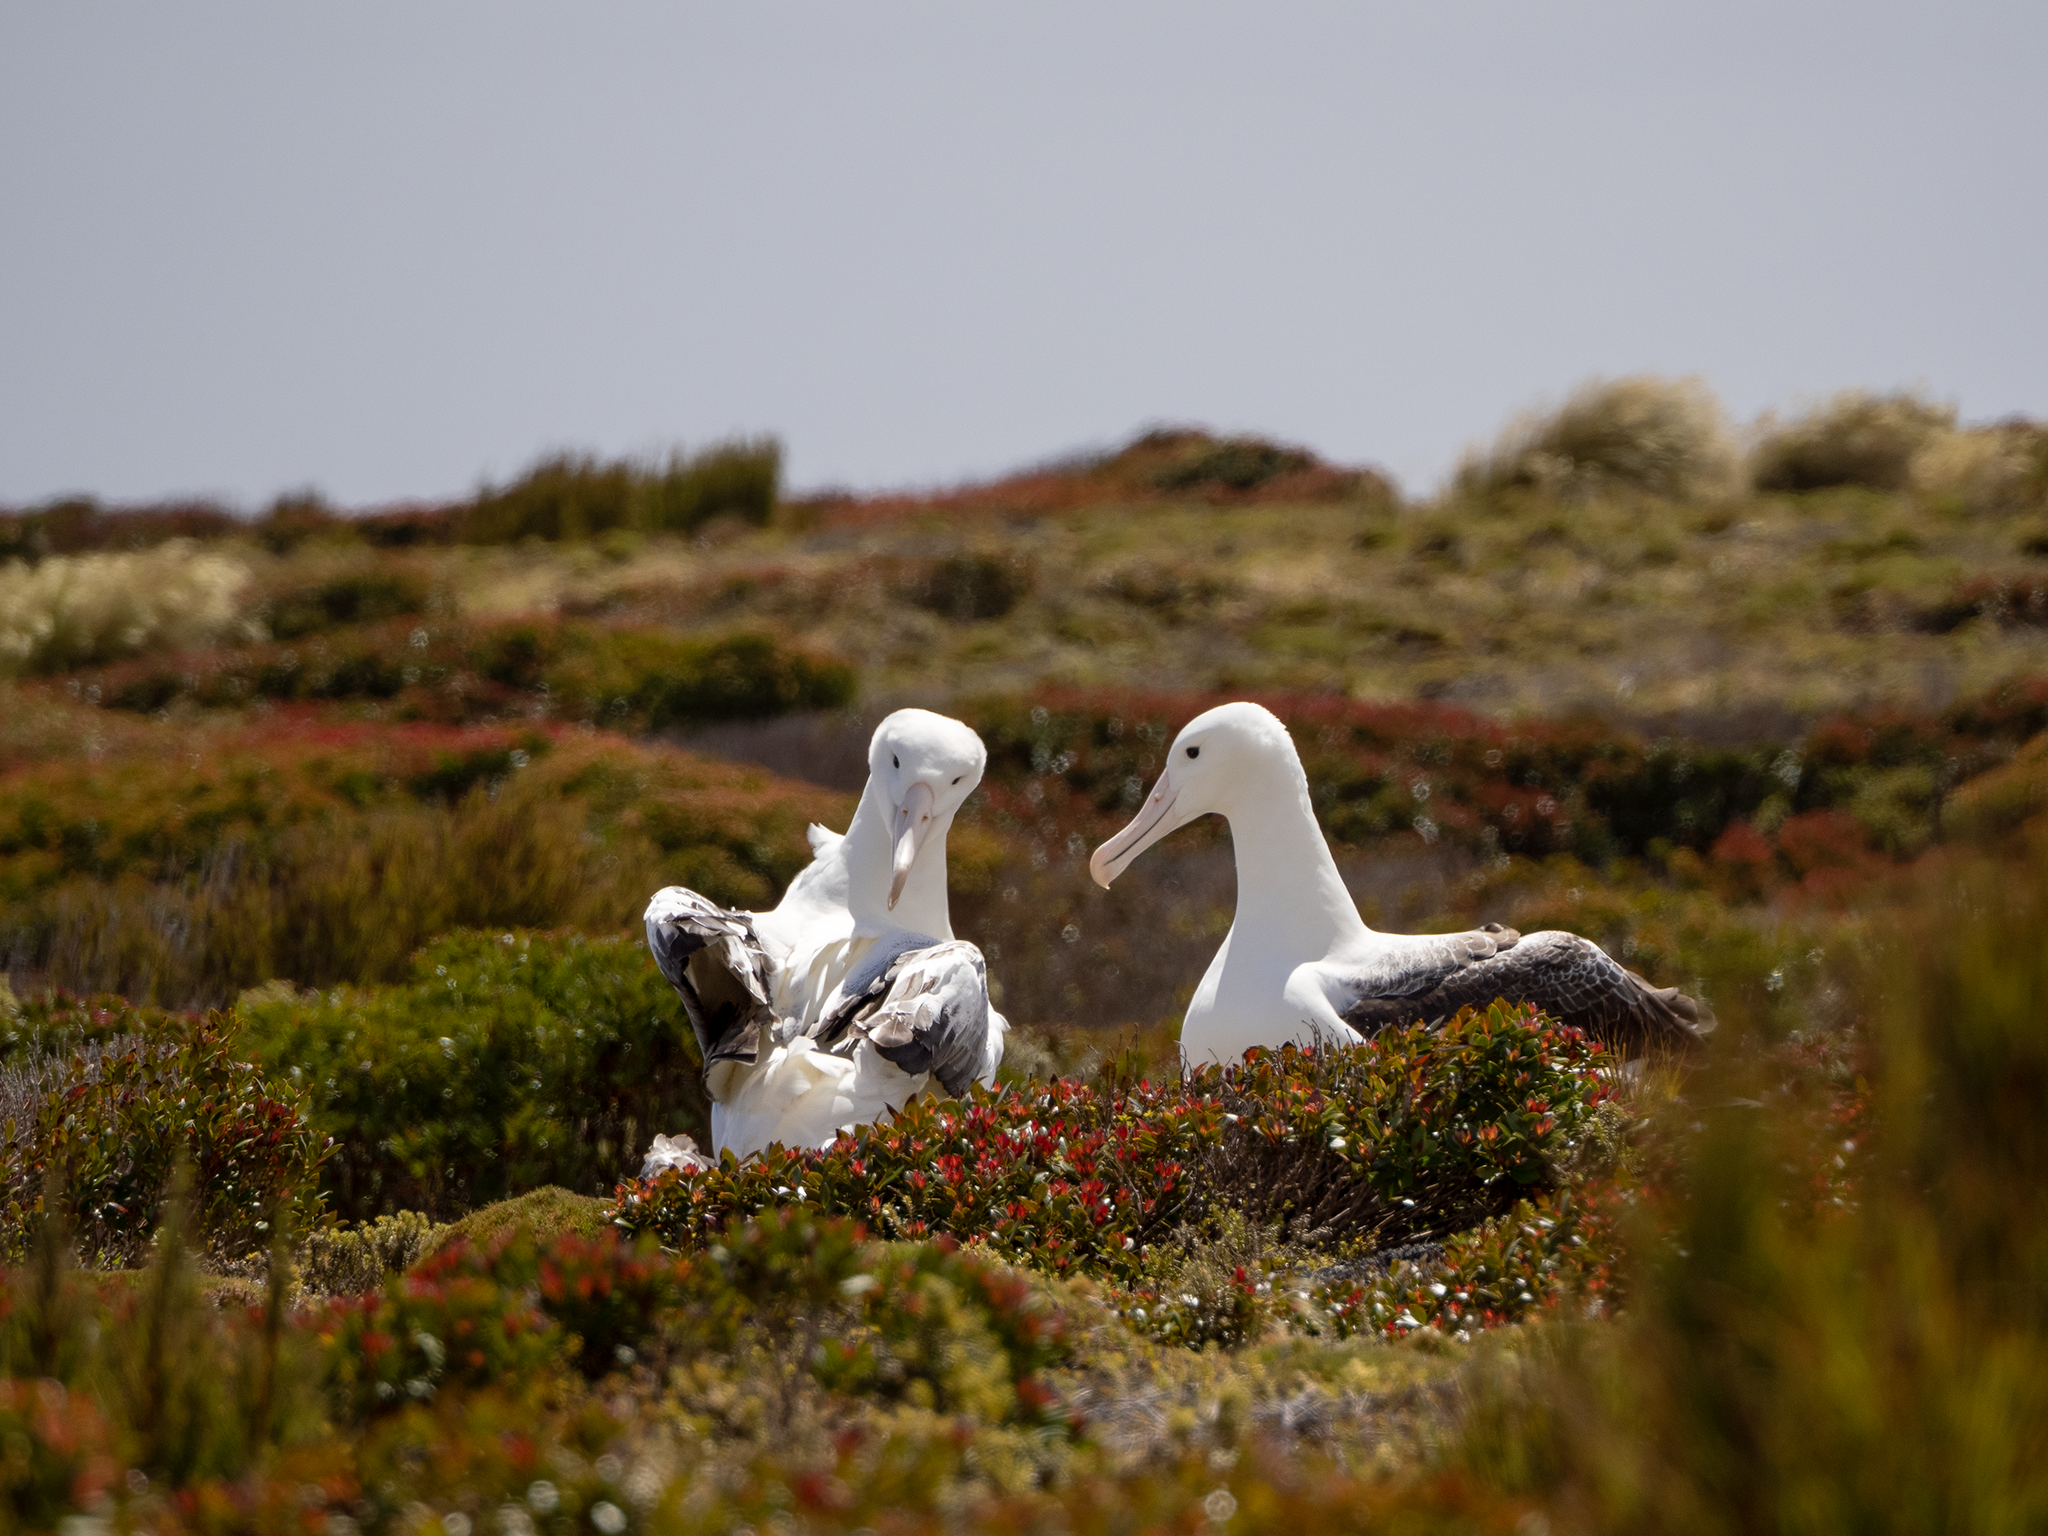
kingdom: Animalia
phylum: Chordata
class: Aves
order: Procellariiformes
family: Diomedeidae
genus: Diomedea
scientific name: Diomedea epomophora
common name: Southern royal albatross
